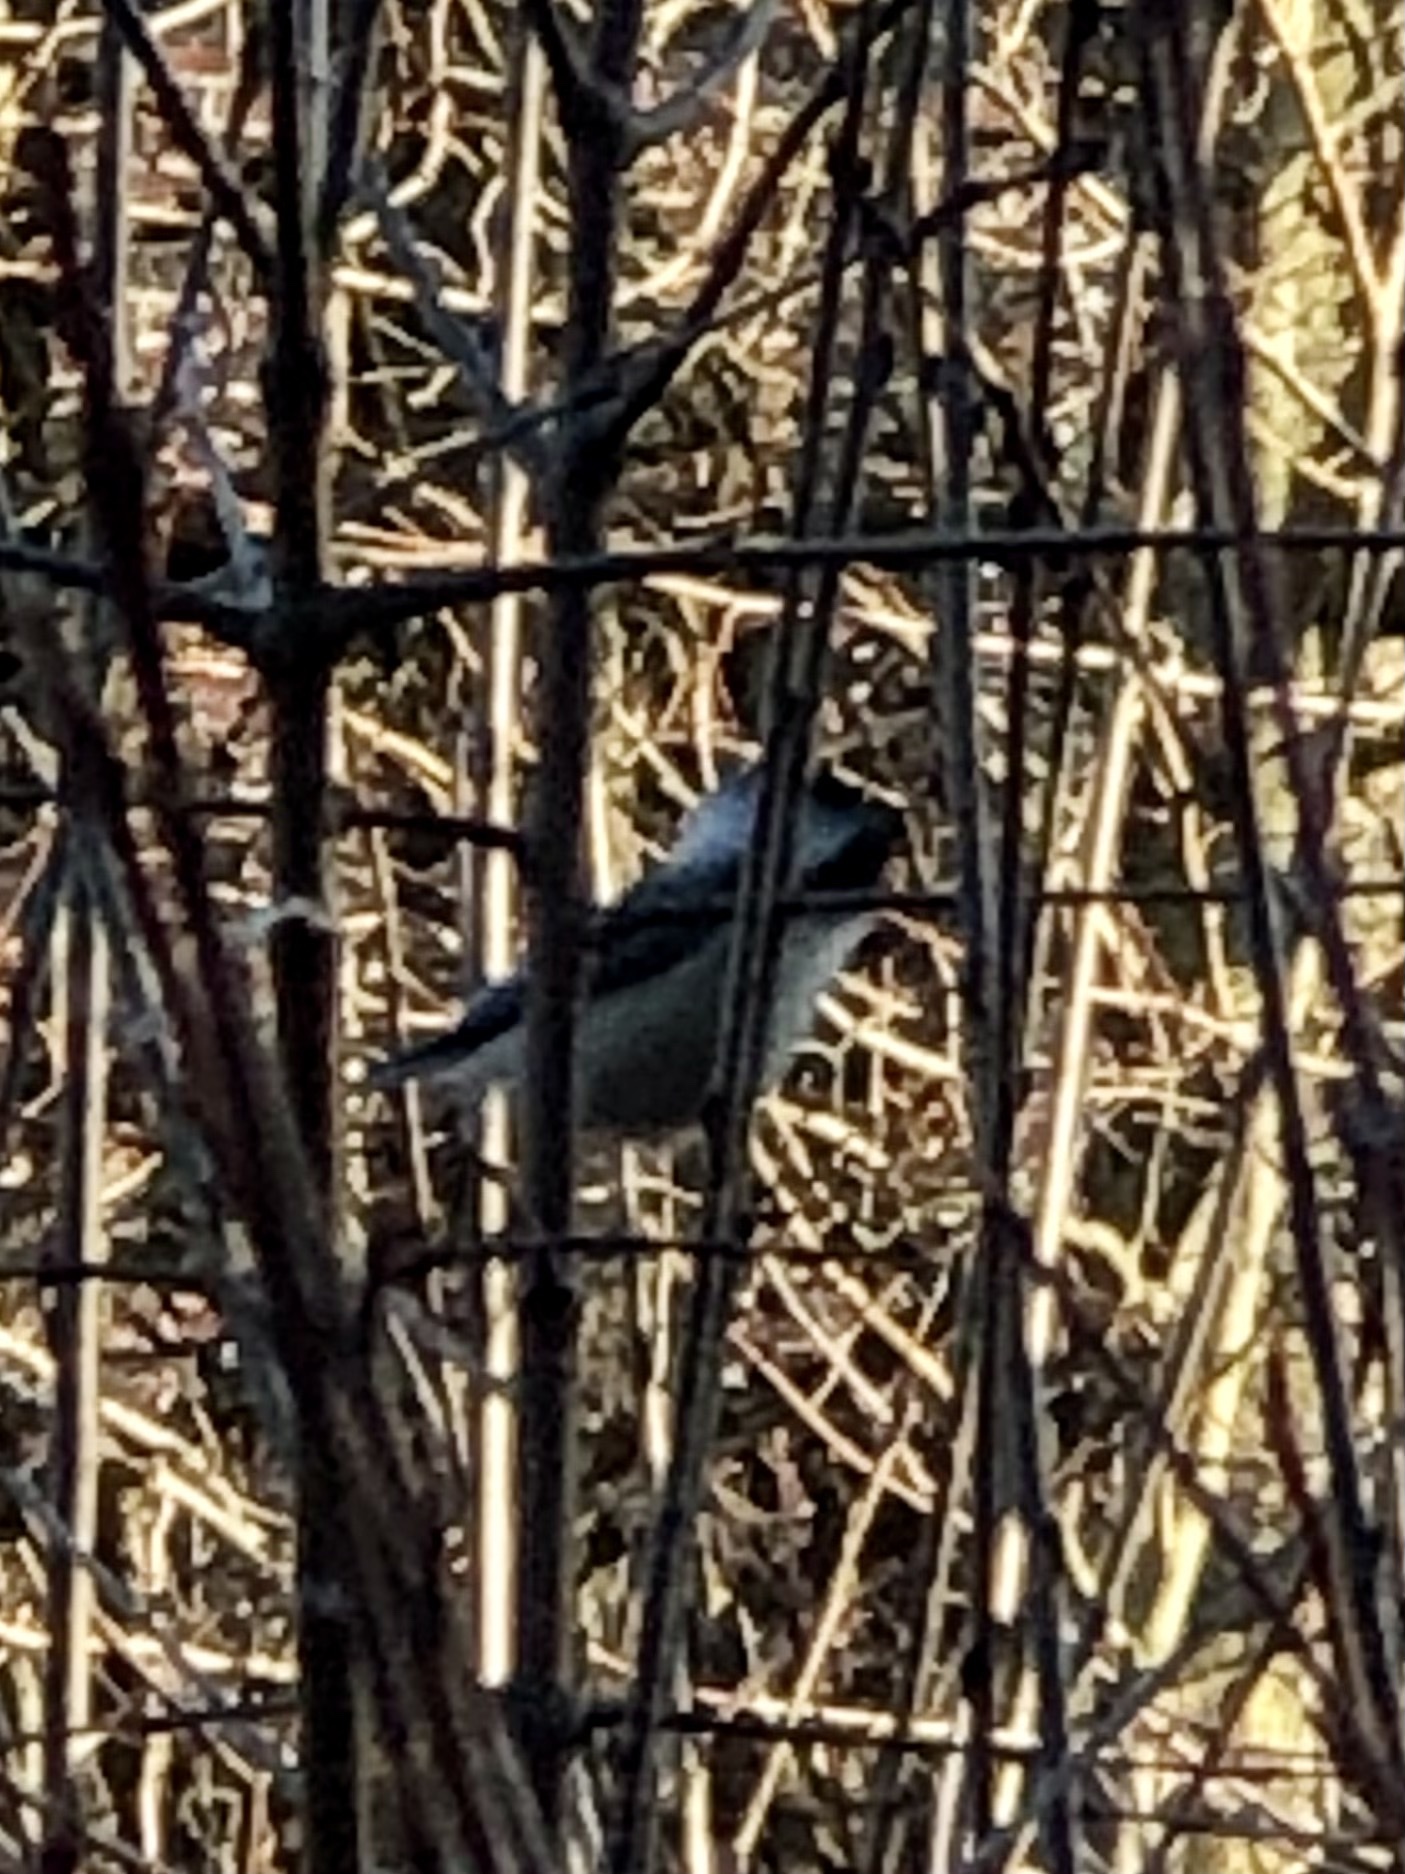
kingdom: Animalia
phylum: Chordata
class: Aves
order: Passeriformes
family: Paridae
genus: Poecile
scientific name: Poecile atricapillus
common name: Black-capped chickadee
